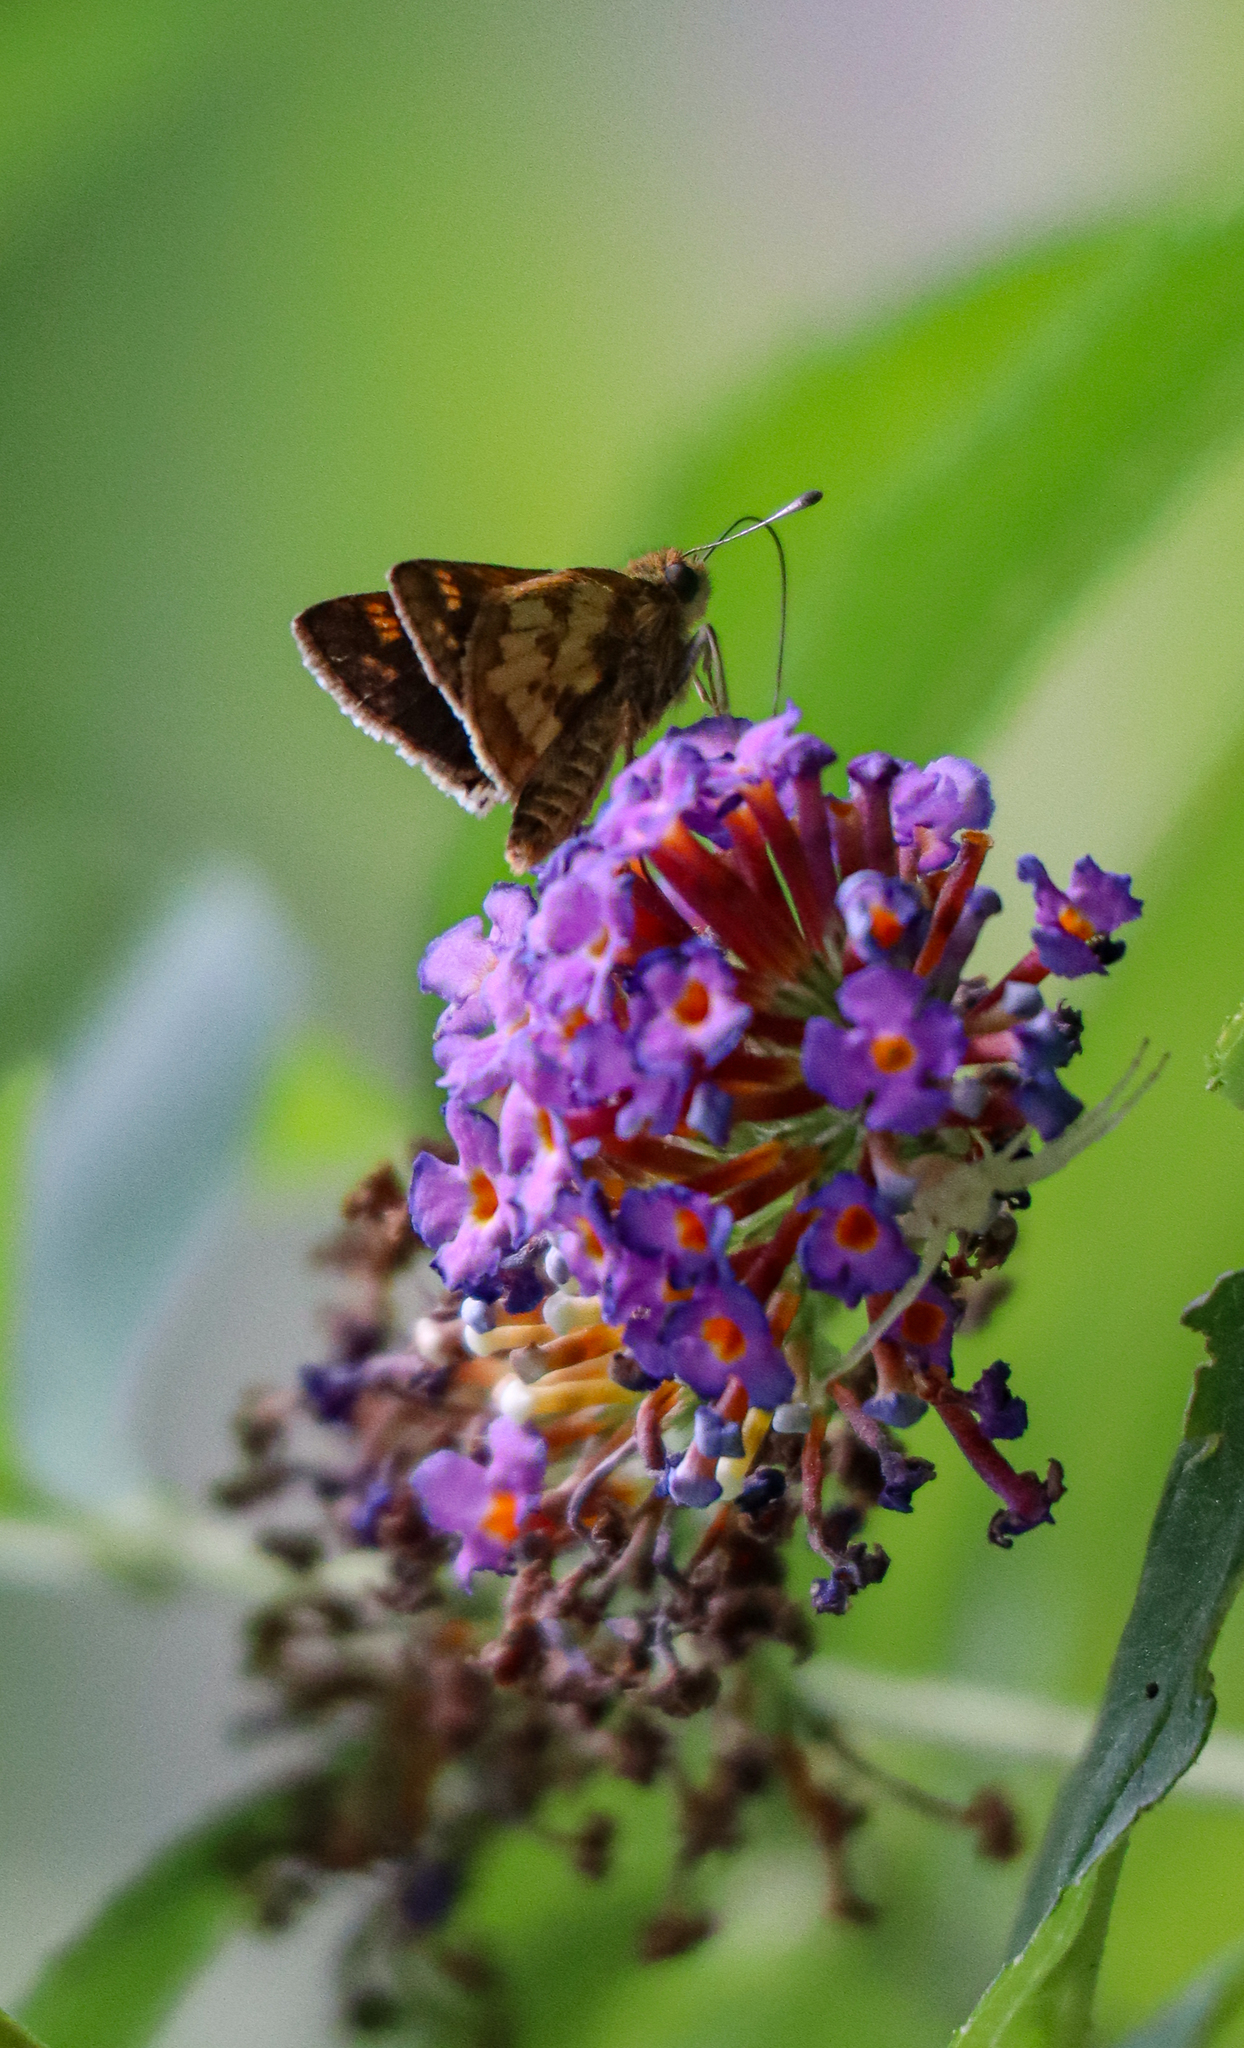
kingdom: Animalia
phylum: Arthropoda
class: Insecta
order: Lepidoptera
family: Hesperiidae
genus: Polites
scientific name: Polites coras
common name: Peck's skipper
